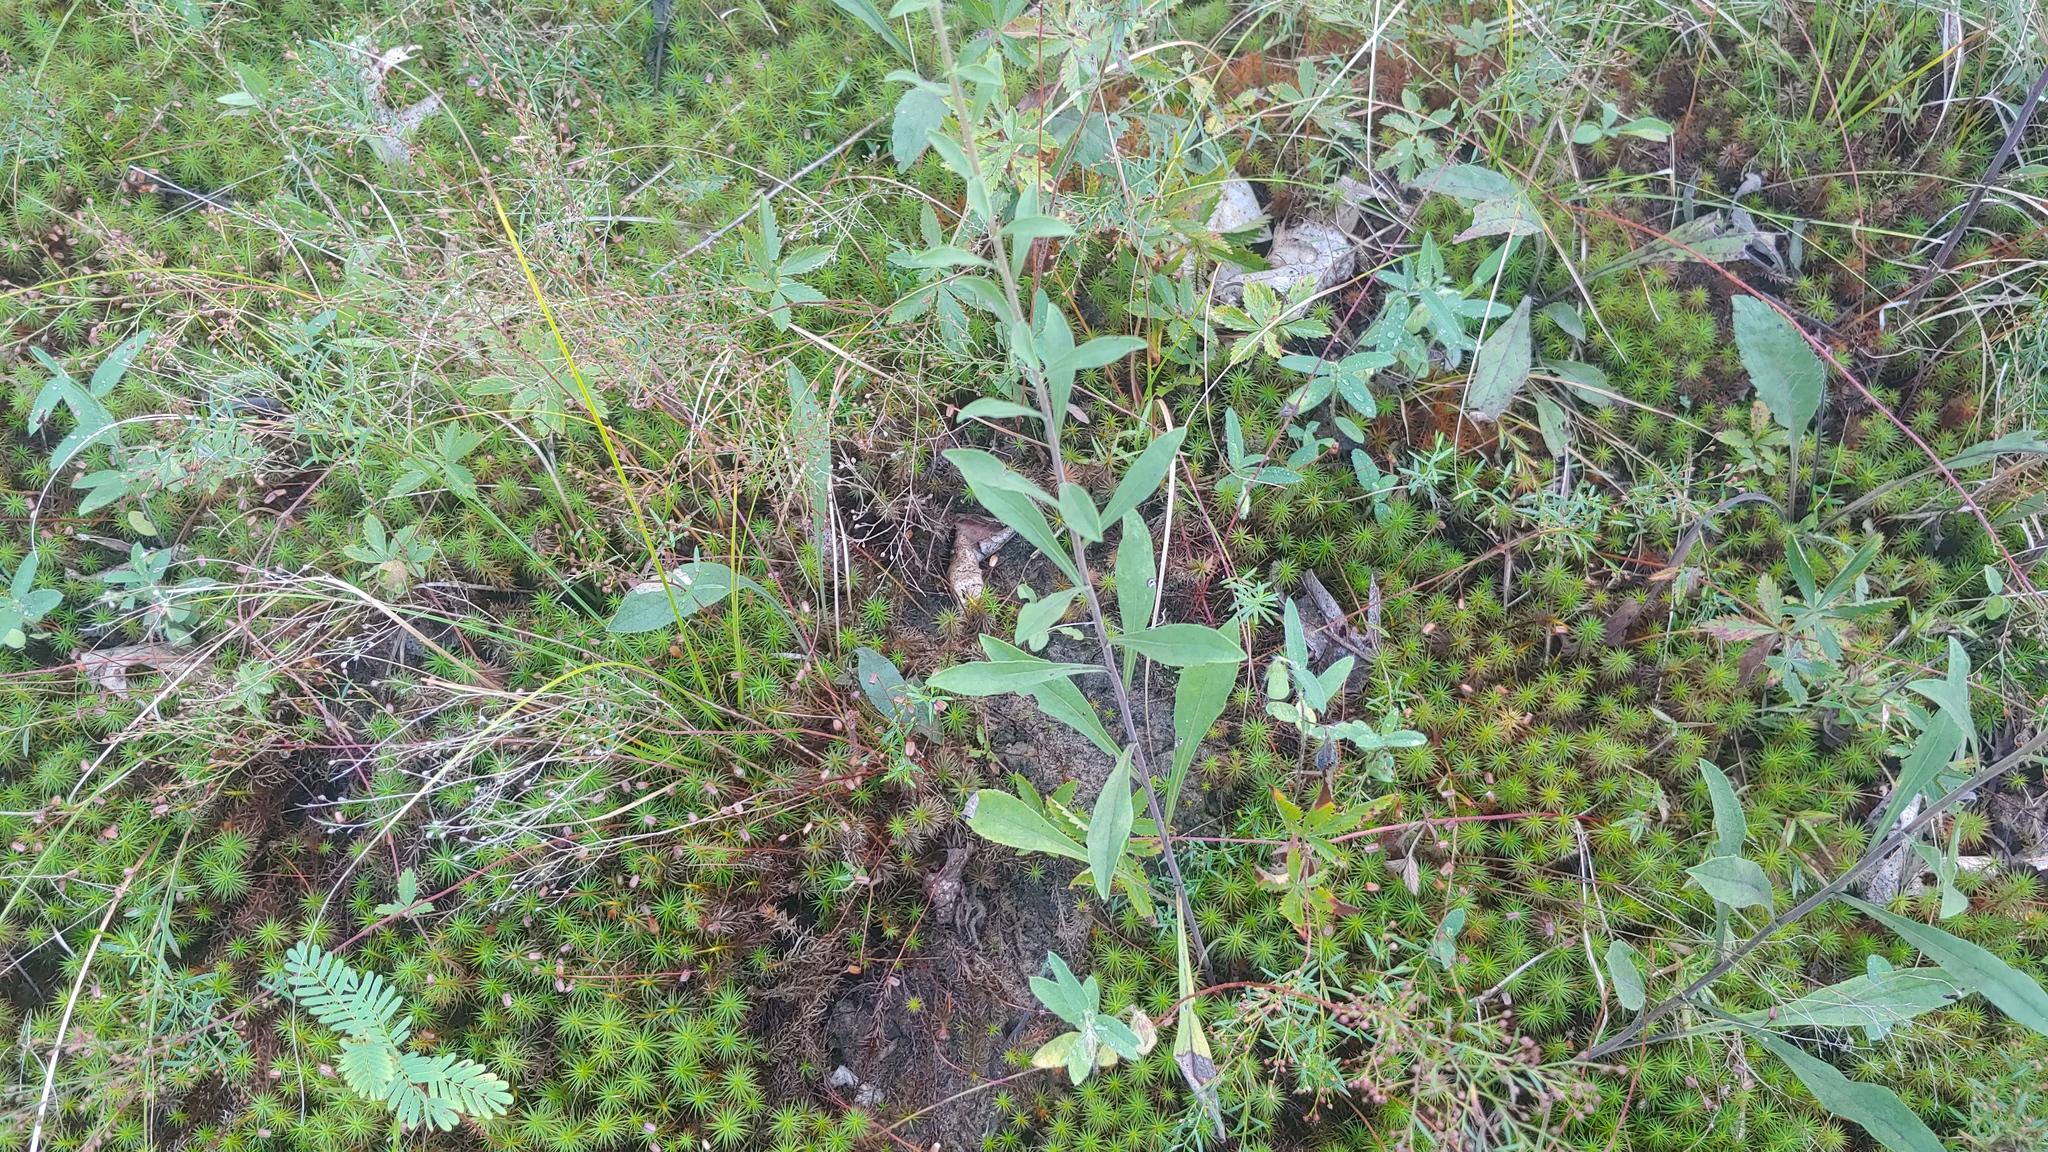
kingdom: Plantae
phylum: Tracheophyta
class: Magnoliopsida
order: Asterales
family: Asteraceae
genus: Solidago
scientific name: Solidago nemoralis
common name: Grey goldenrod
